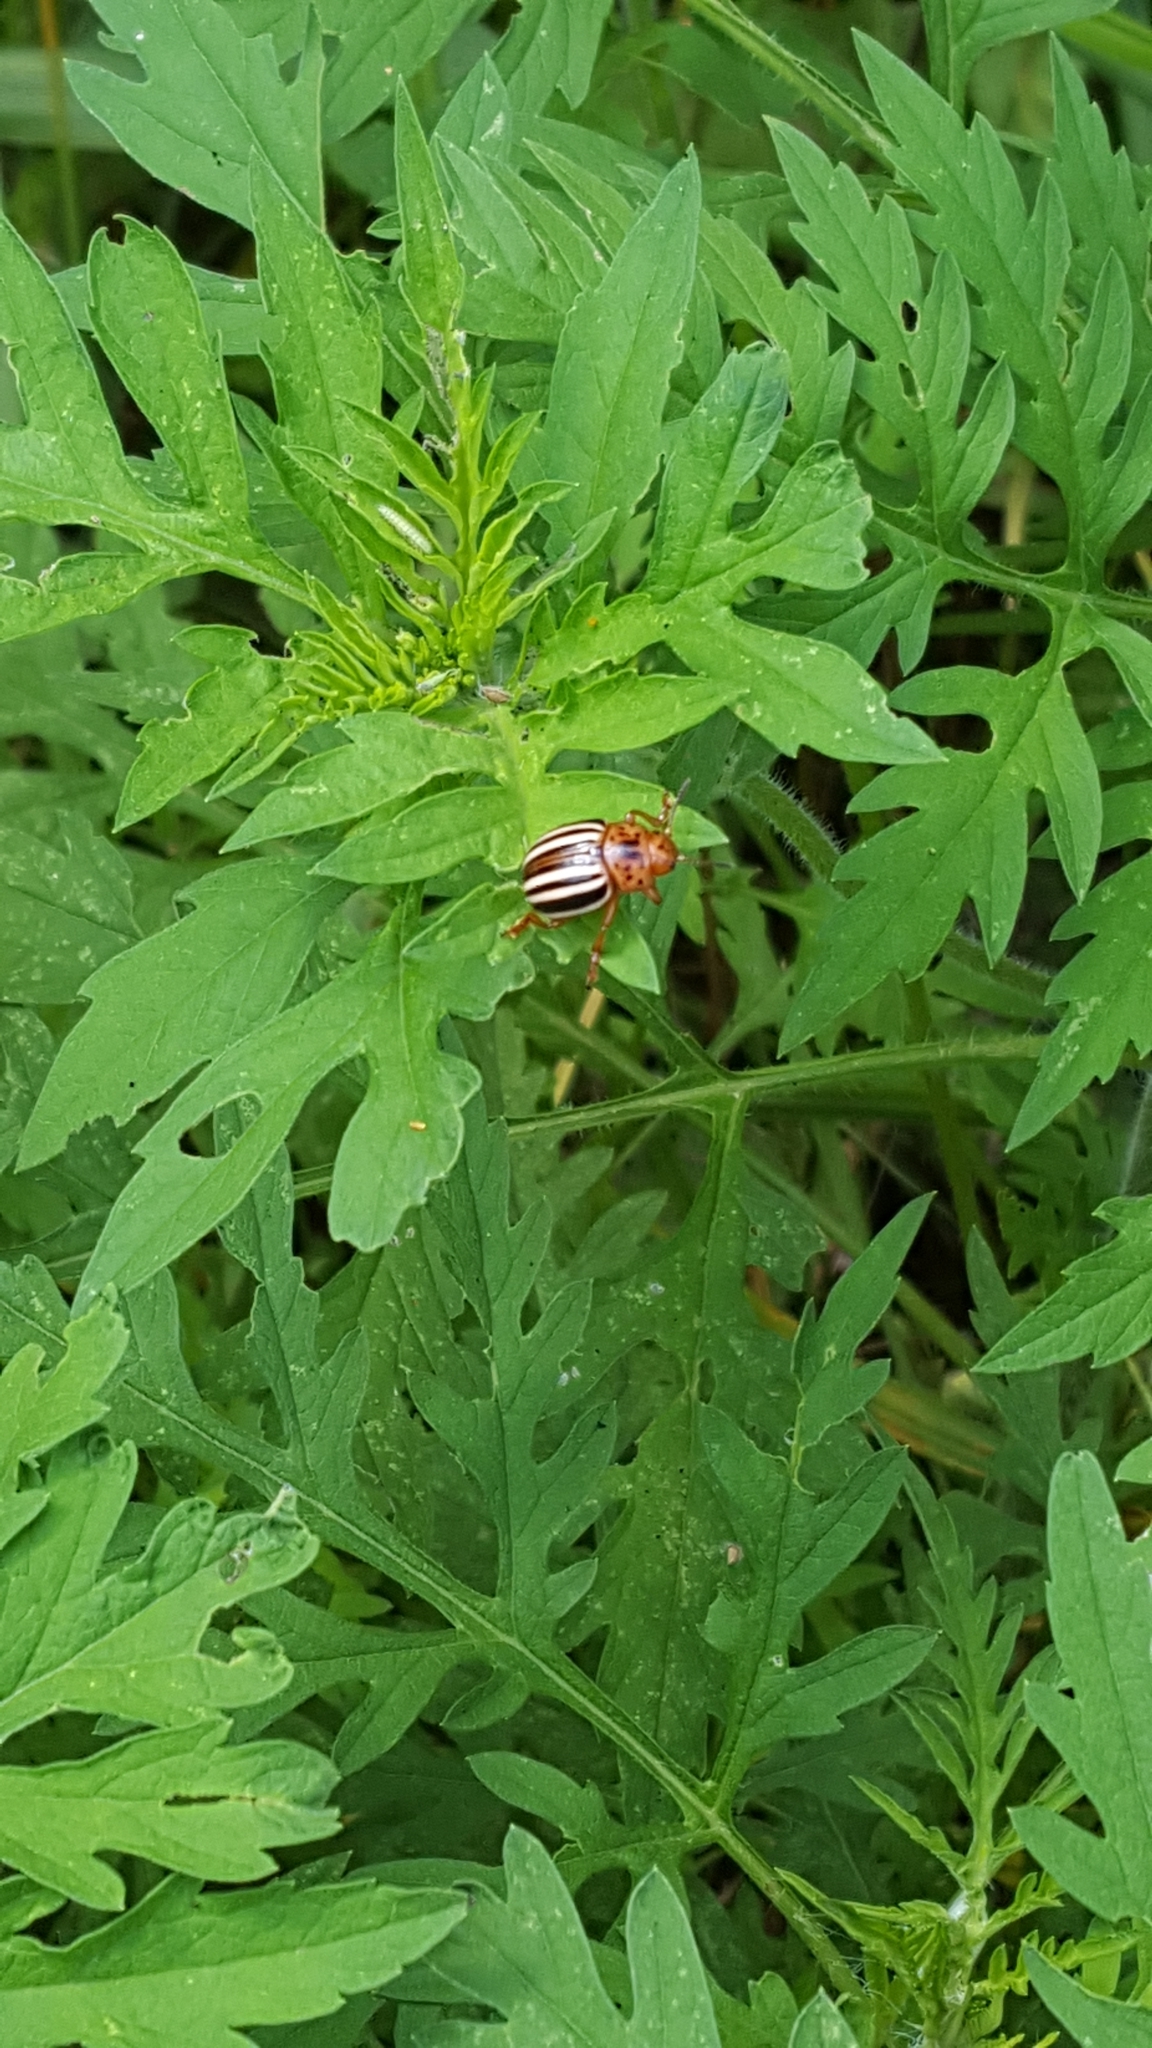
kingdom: Animalia
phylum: Arthropoda
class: Insecta
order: Coleoptera
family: Chrysomelidae
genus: Leptinotarsa
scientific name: Leptinotarsa juncta
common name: False potato beetle
